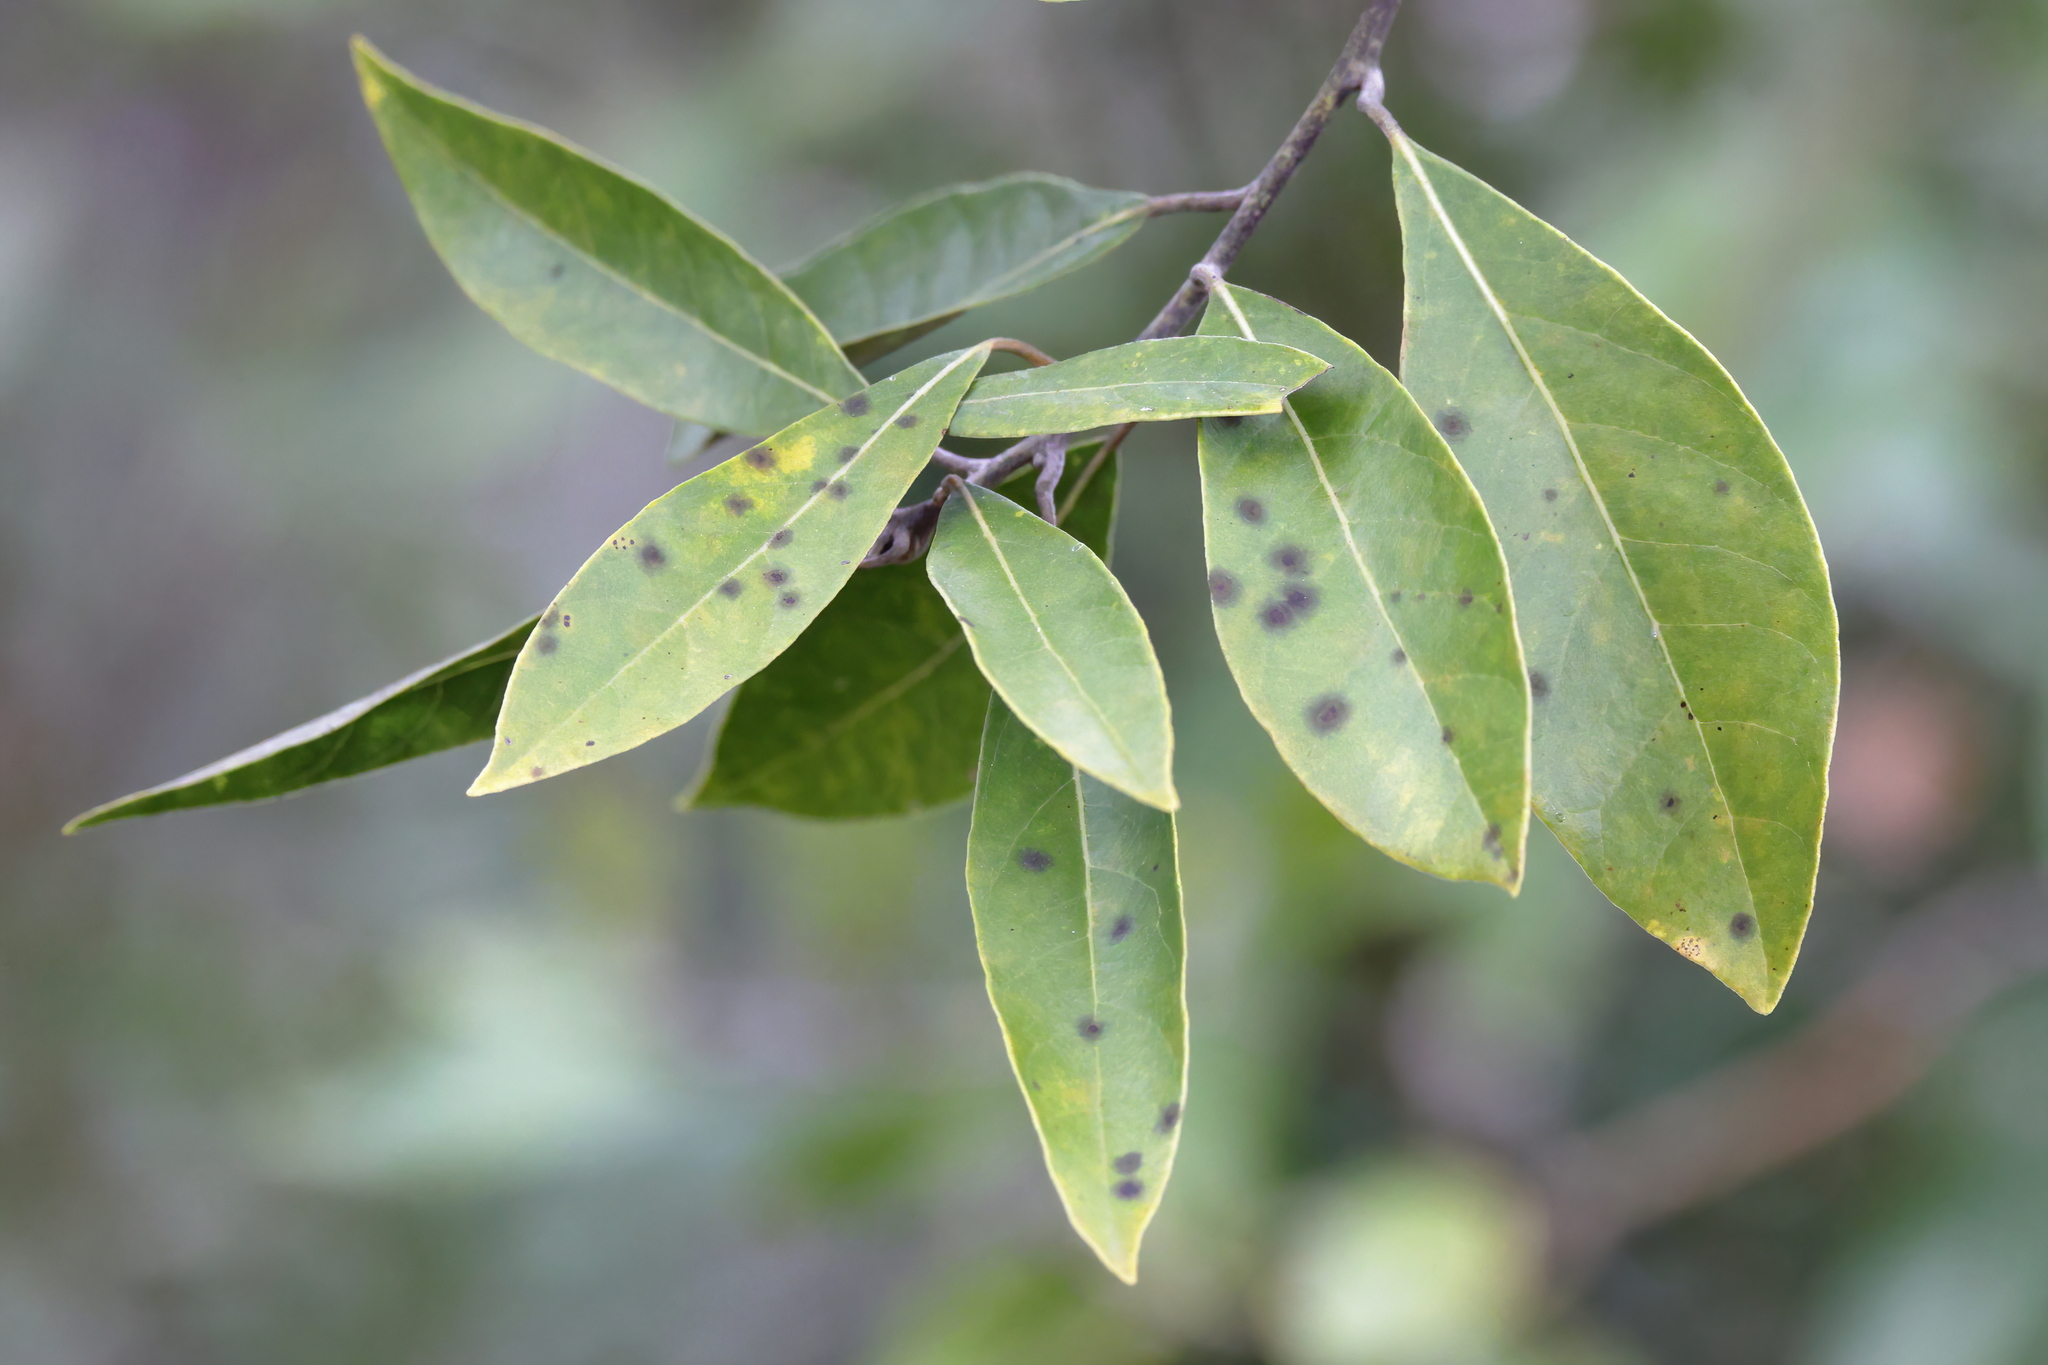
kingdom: Plantae
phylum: Tracheophyta
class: Magnoliopsida
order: Laurales
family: Lauraceae
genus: Persea
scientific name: Persea borbonia
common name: Redbay
